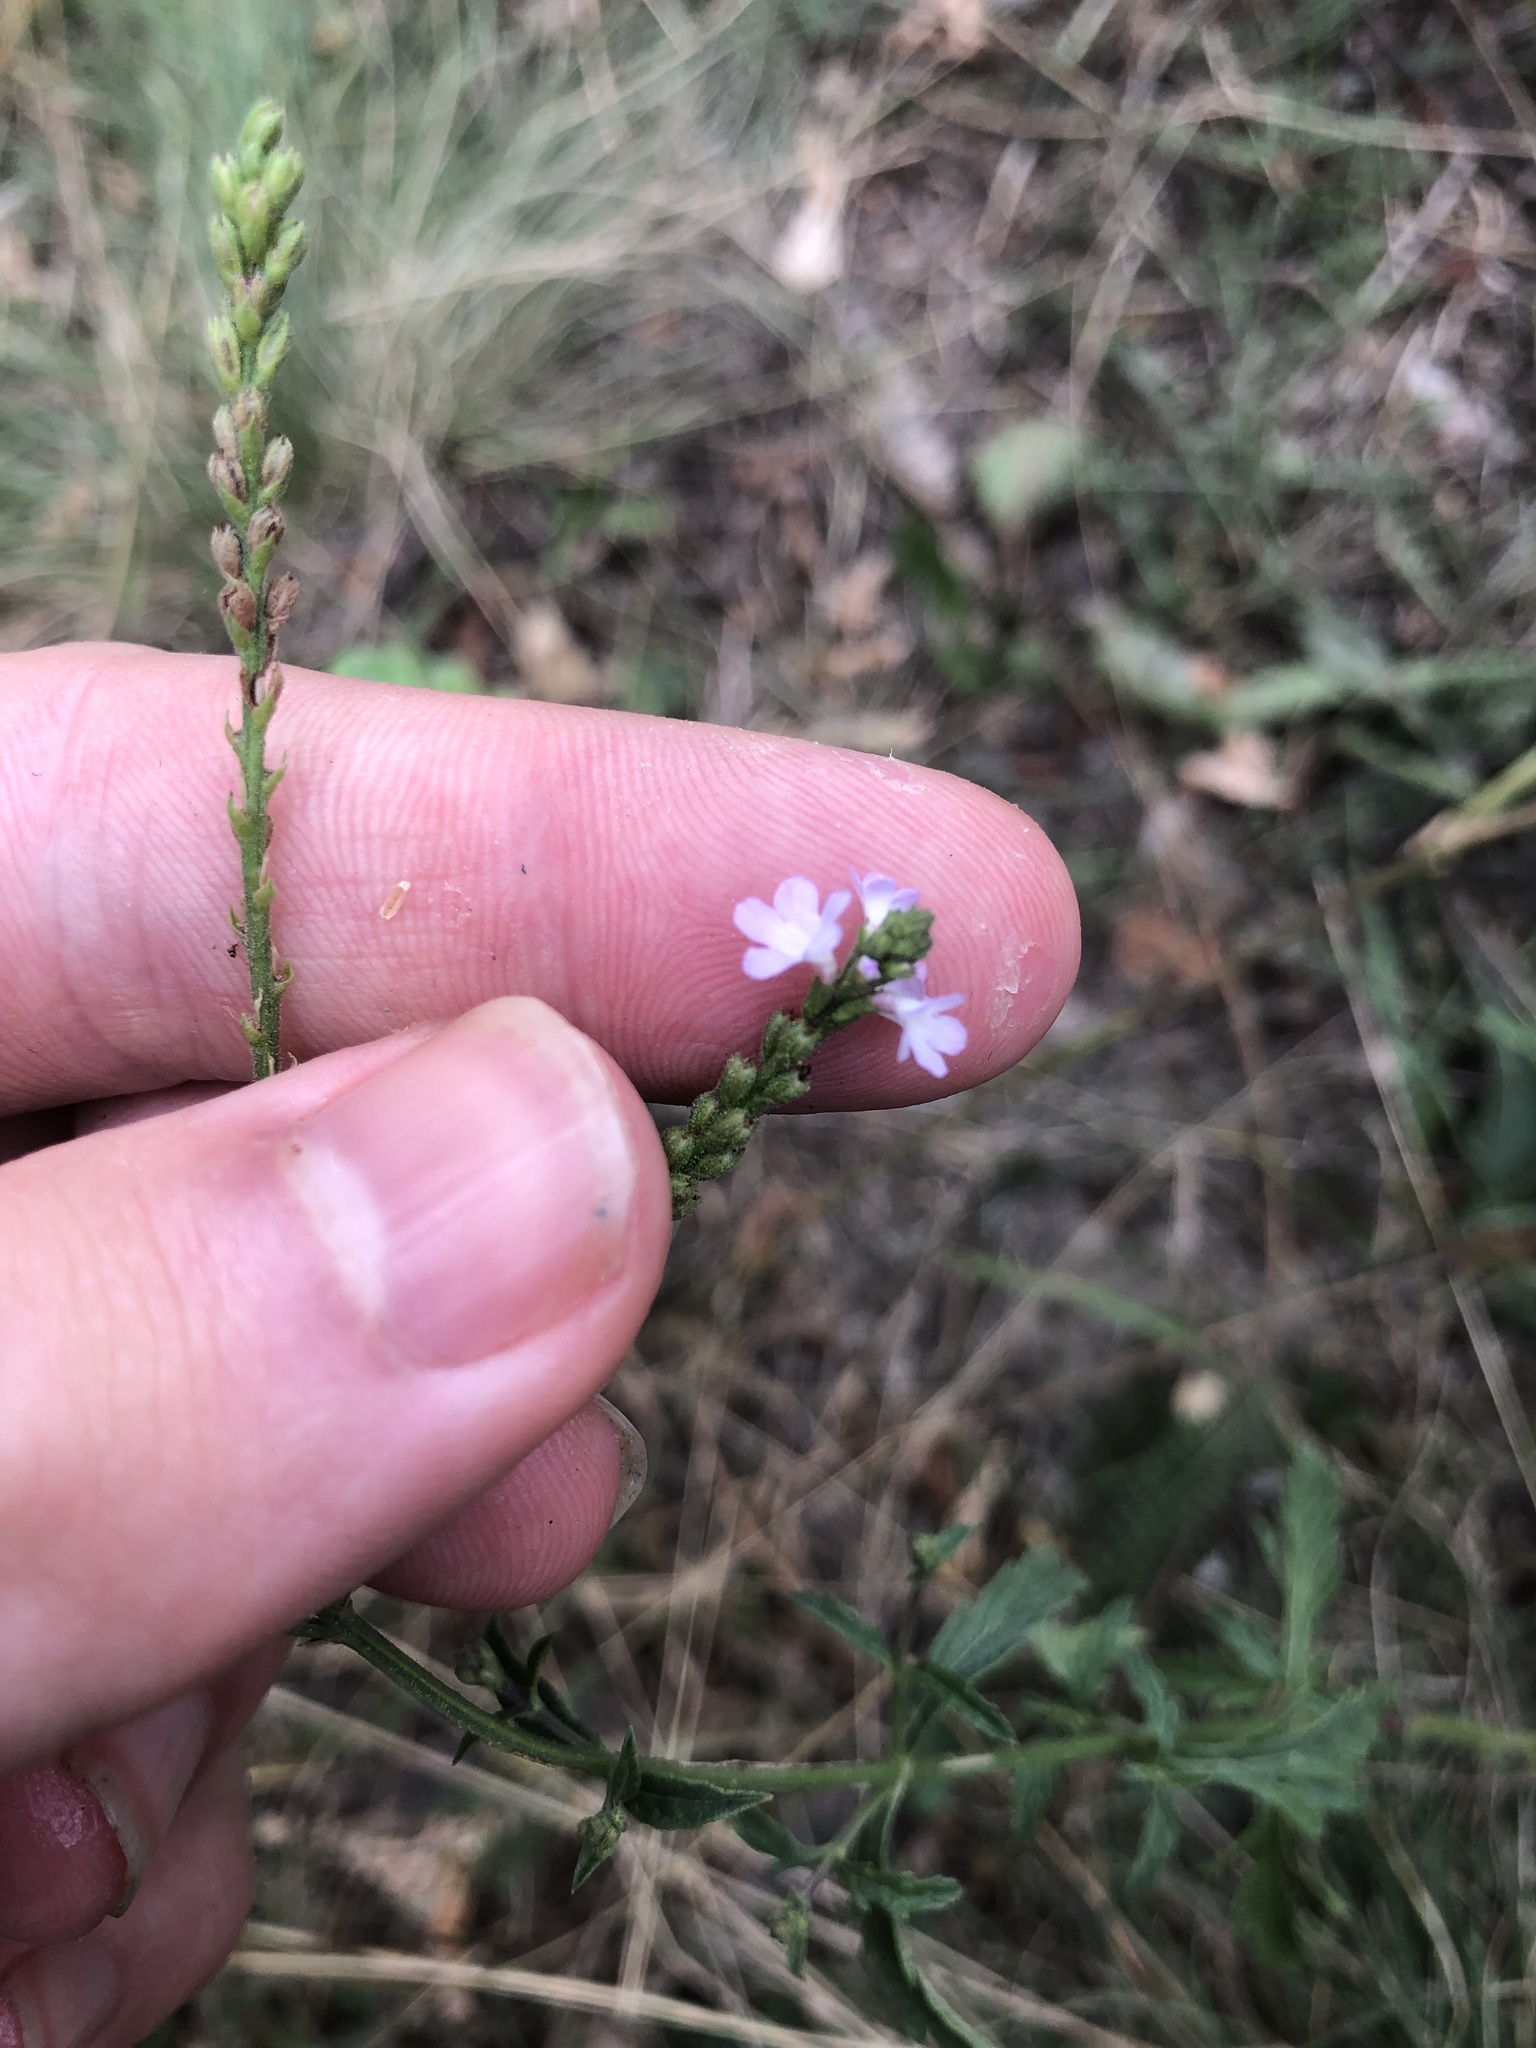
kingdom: Plantae
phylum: Tracheophyta
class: Magnoliopsida
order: Lamiales
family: Verbenaceae
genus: Verbena
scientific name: Verbena officinalis
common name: Vervain
